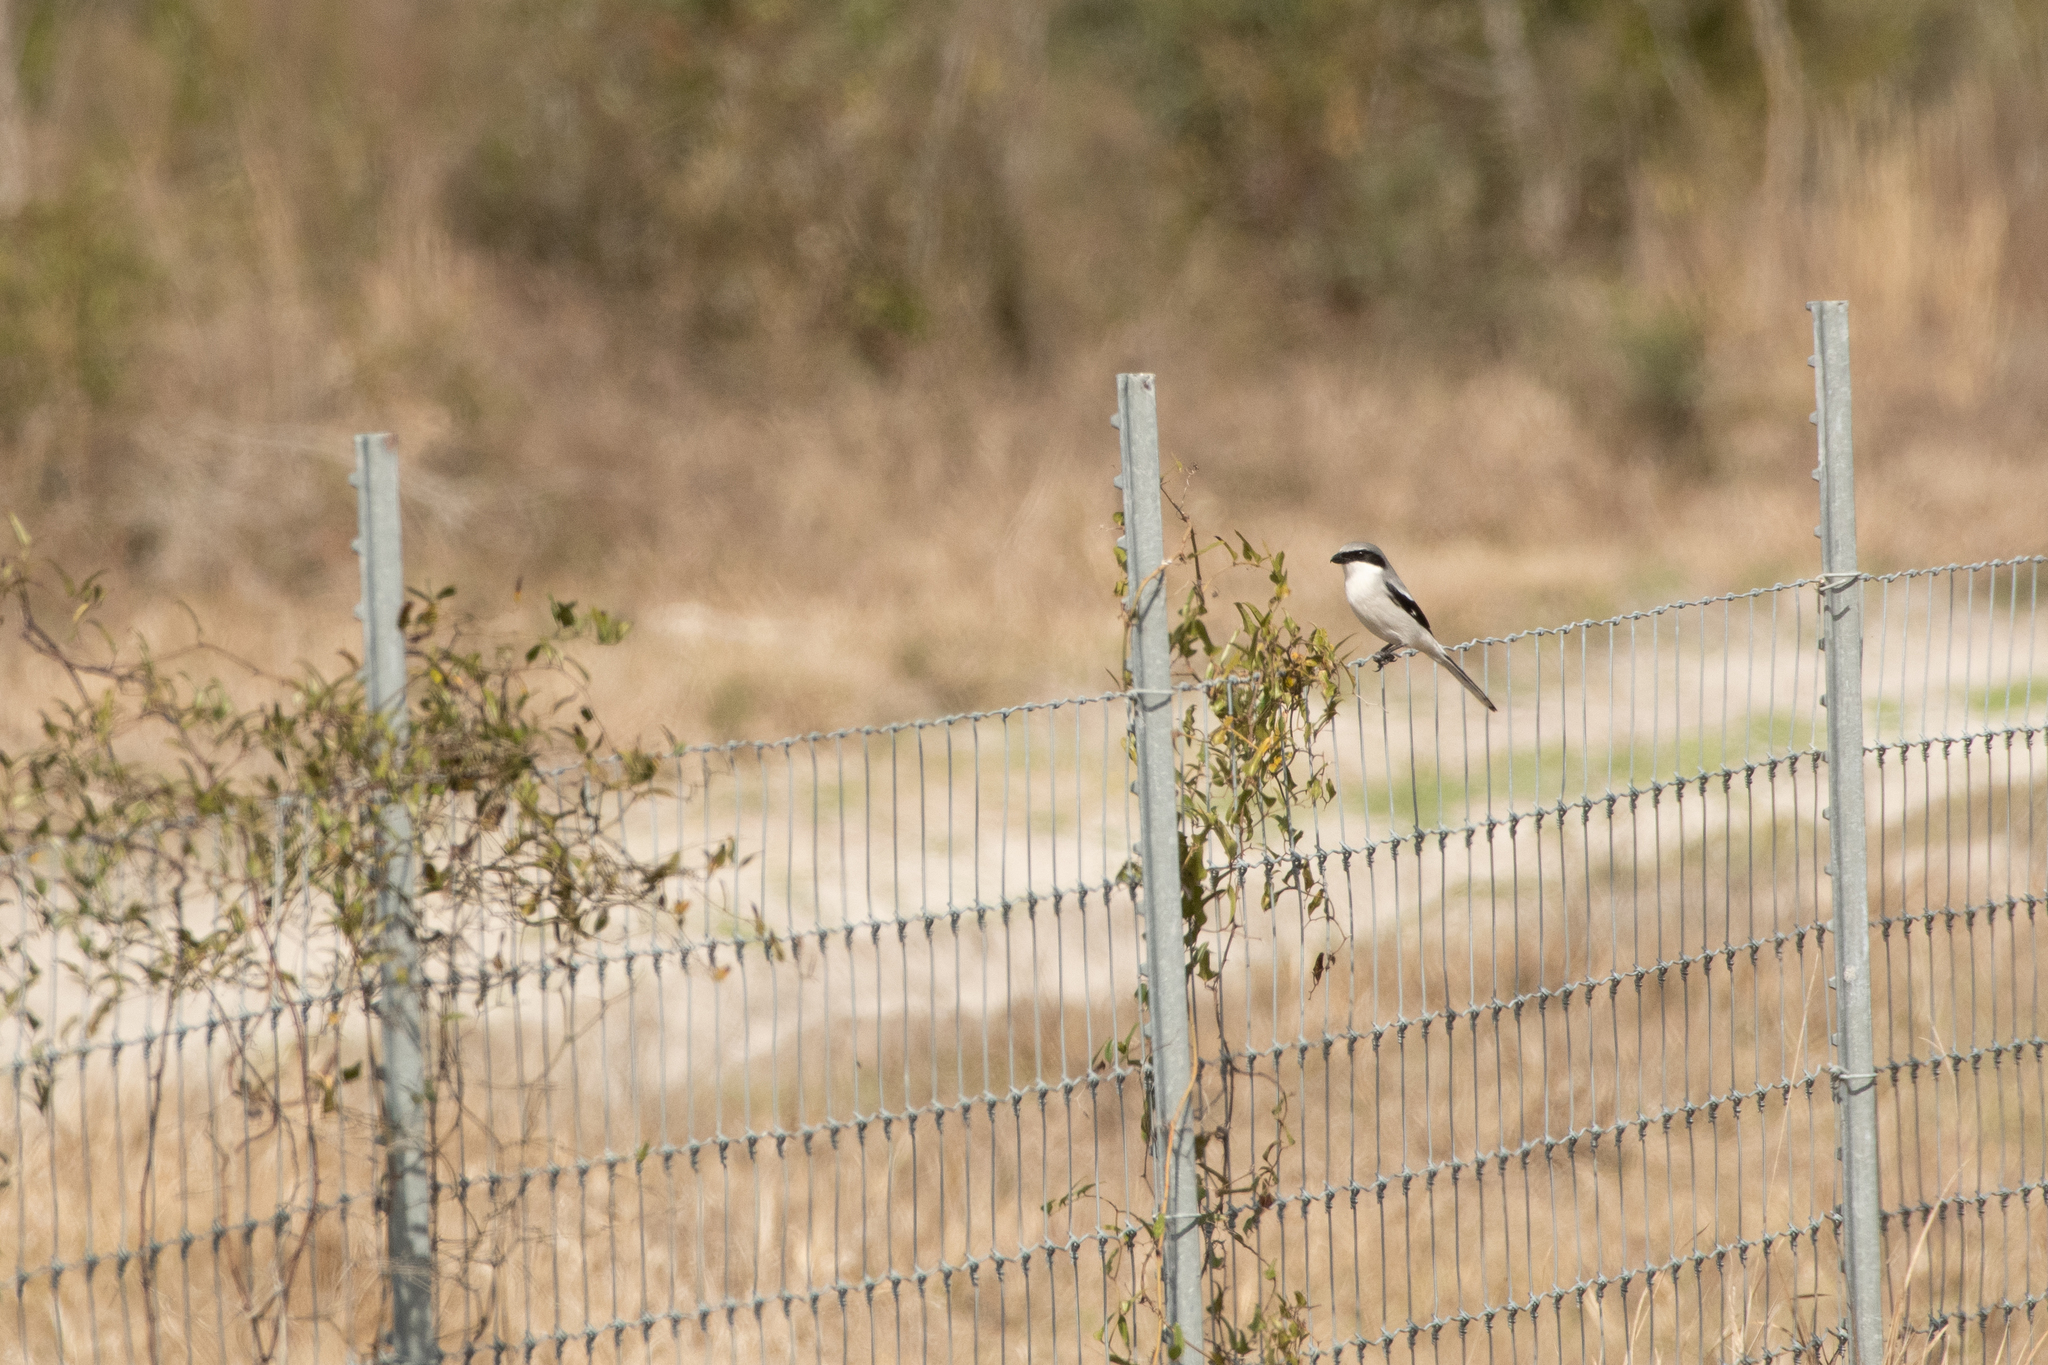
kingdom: Animalia
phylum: Chordata
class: Aves
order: Passeriformes
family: Laniidae
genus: Lanius
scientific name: Lanius ludovicianus
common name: Loggerhead shrike
